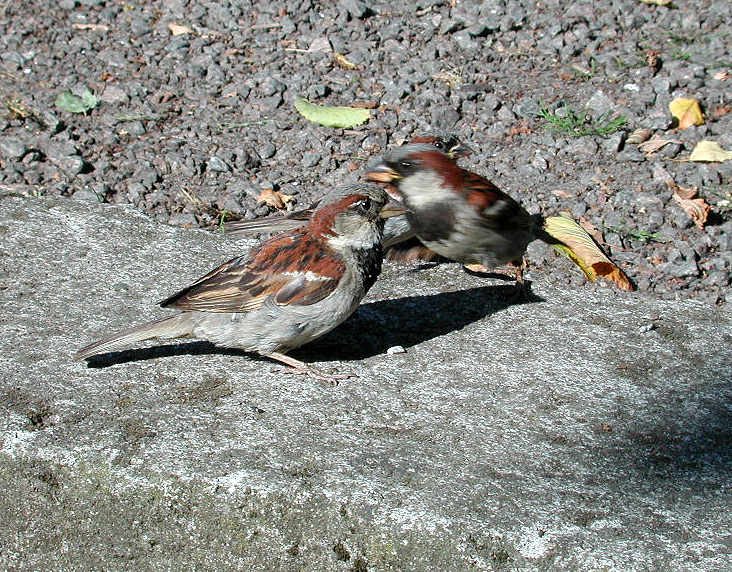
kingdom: Animalia
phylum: Chordata
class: Aves
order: Passeriformes
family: Passeridae
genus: Passer
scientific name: Passer domesticus
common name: House sparrow
